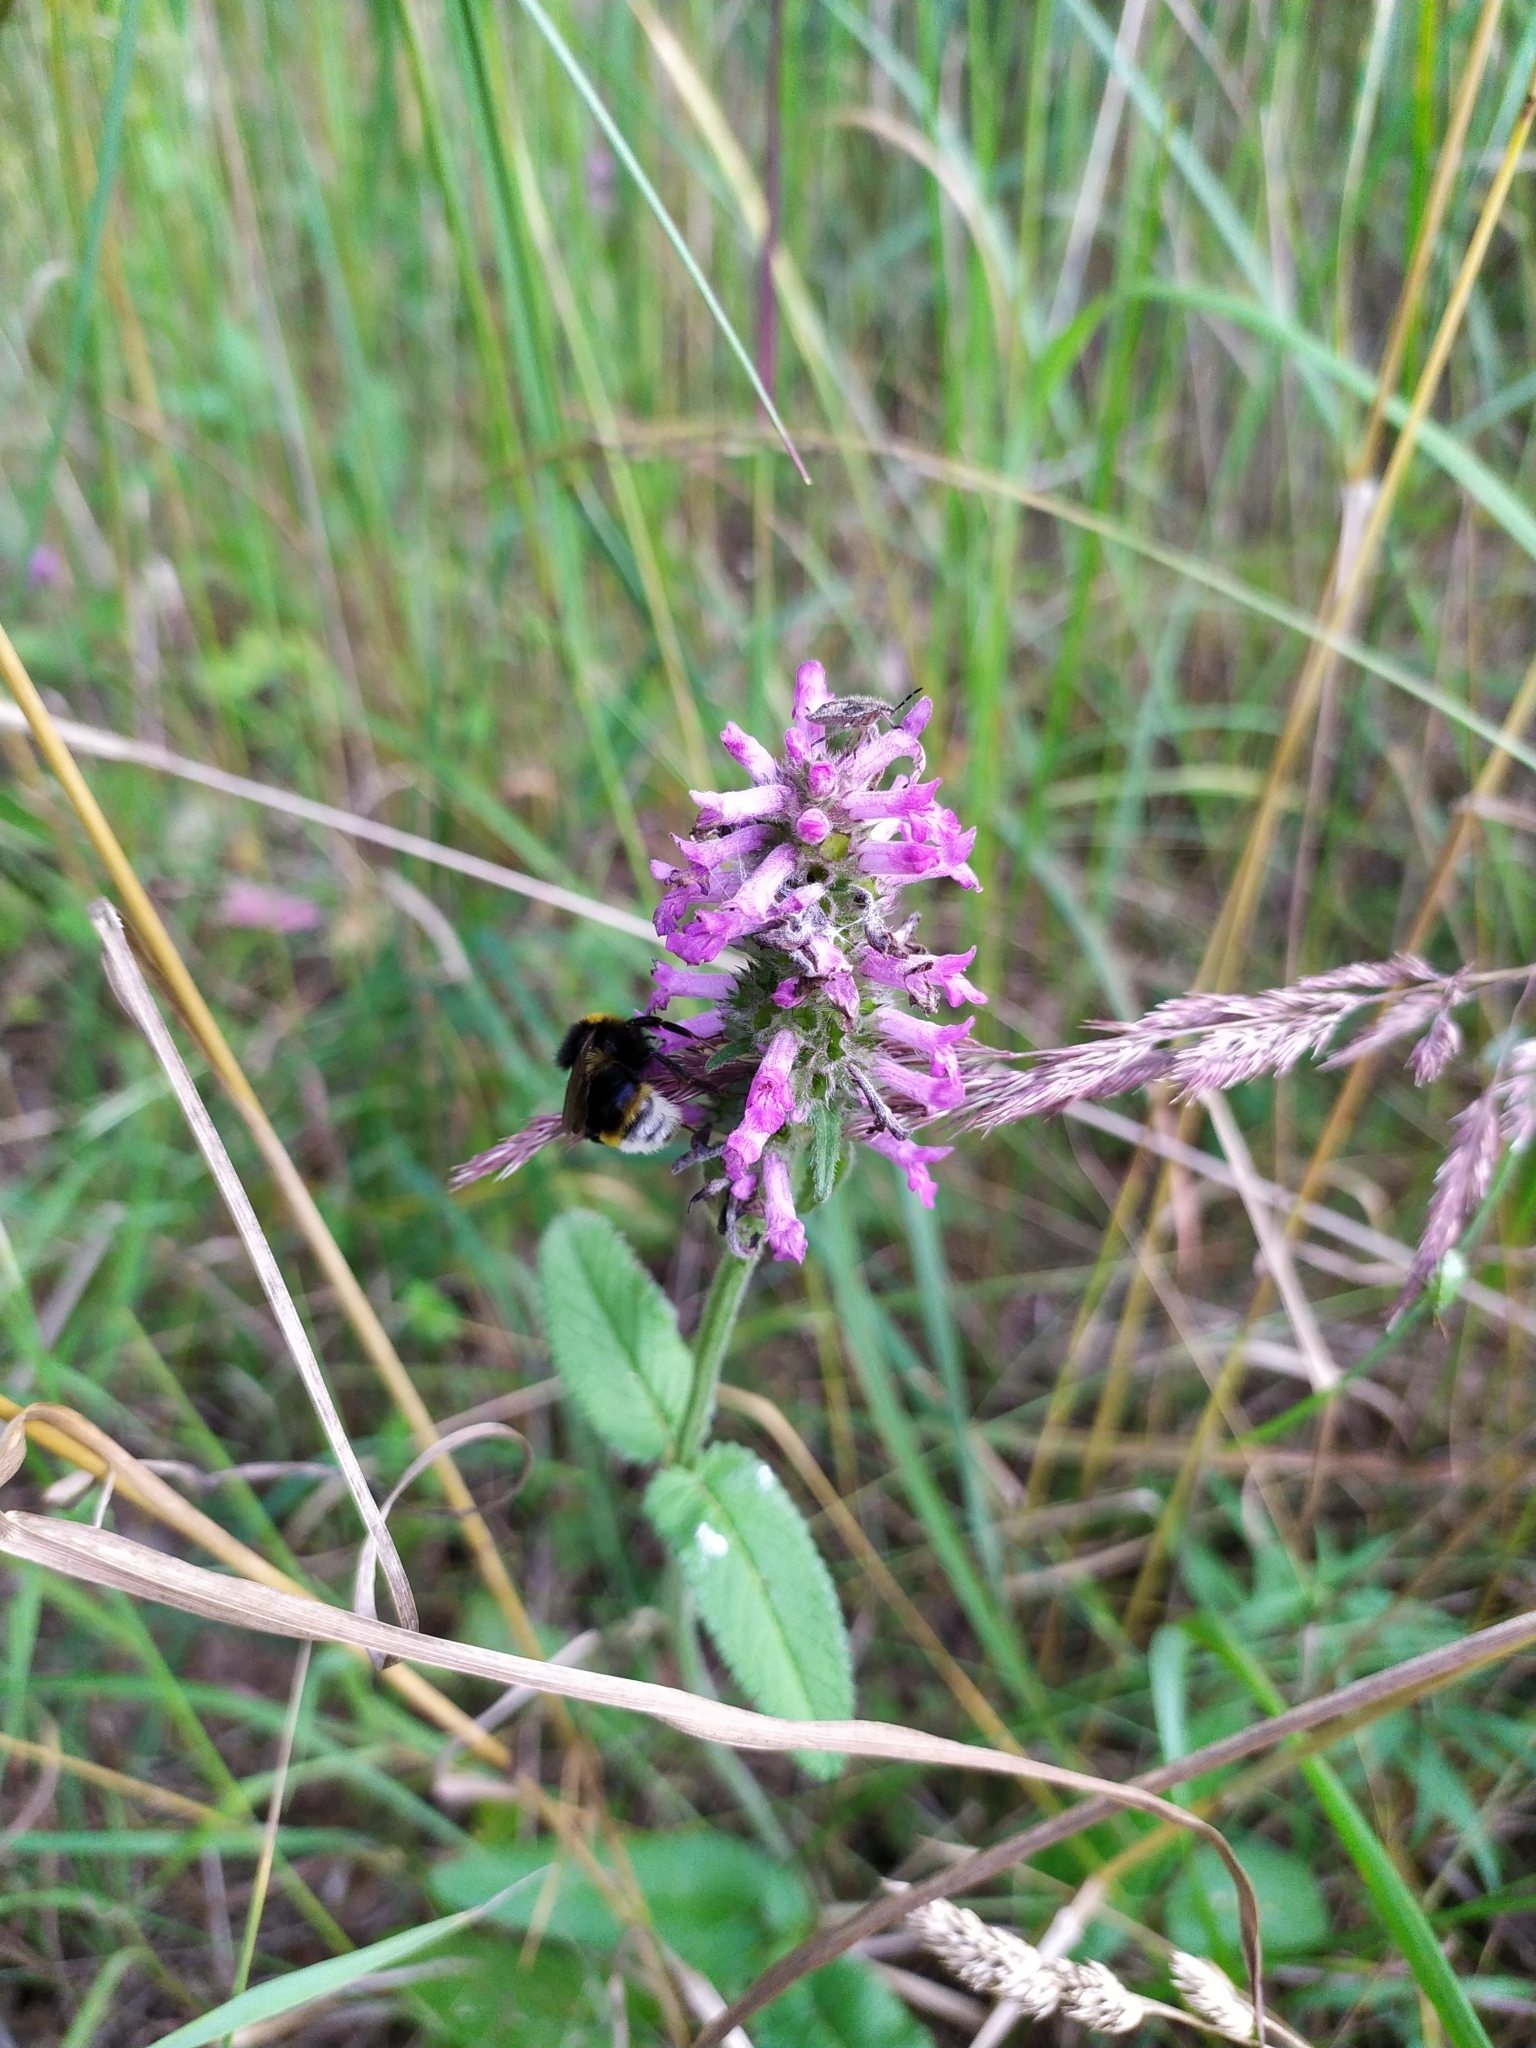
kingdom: Plantae
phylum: Tracheophyta
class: Magnoliopsida
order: Lamiales
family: Lamiaceae
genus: Betonica
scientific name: Betonica officinalis
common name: Bishop's-wort
